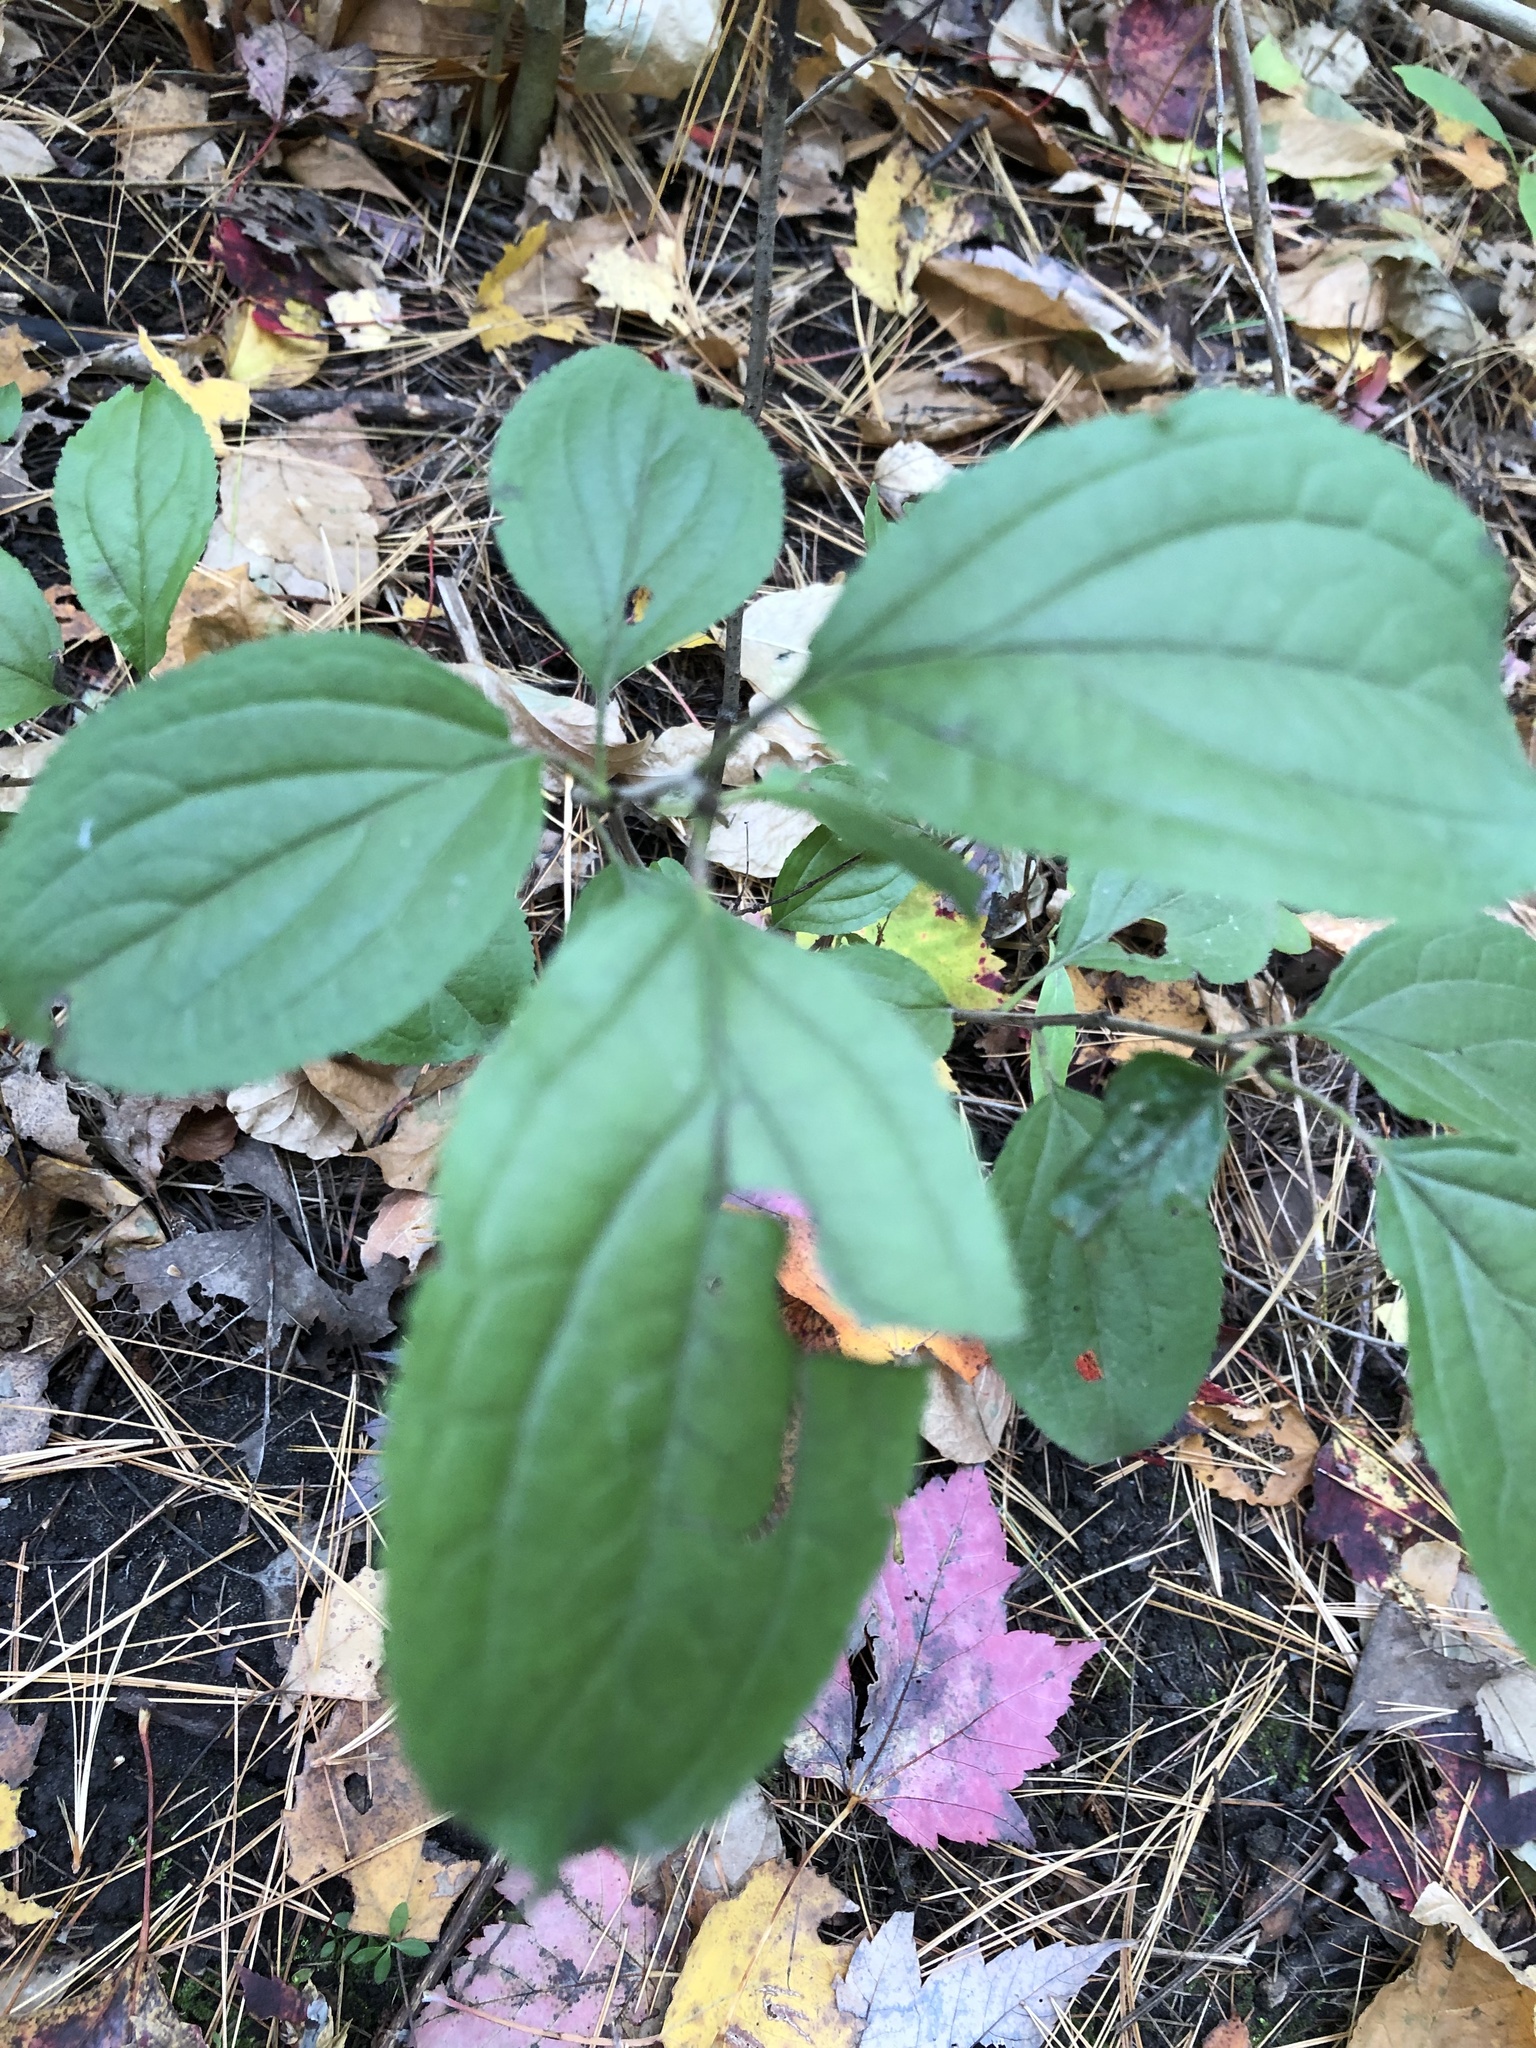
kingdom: Plantae
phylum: Tracheophyta
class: Magnoliopsida
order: Rosales
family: Rhamnaceae
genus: Rhamnus
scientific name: Rhamnus cathartica
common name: Common buckthorn
